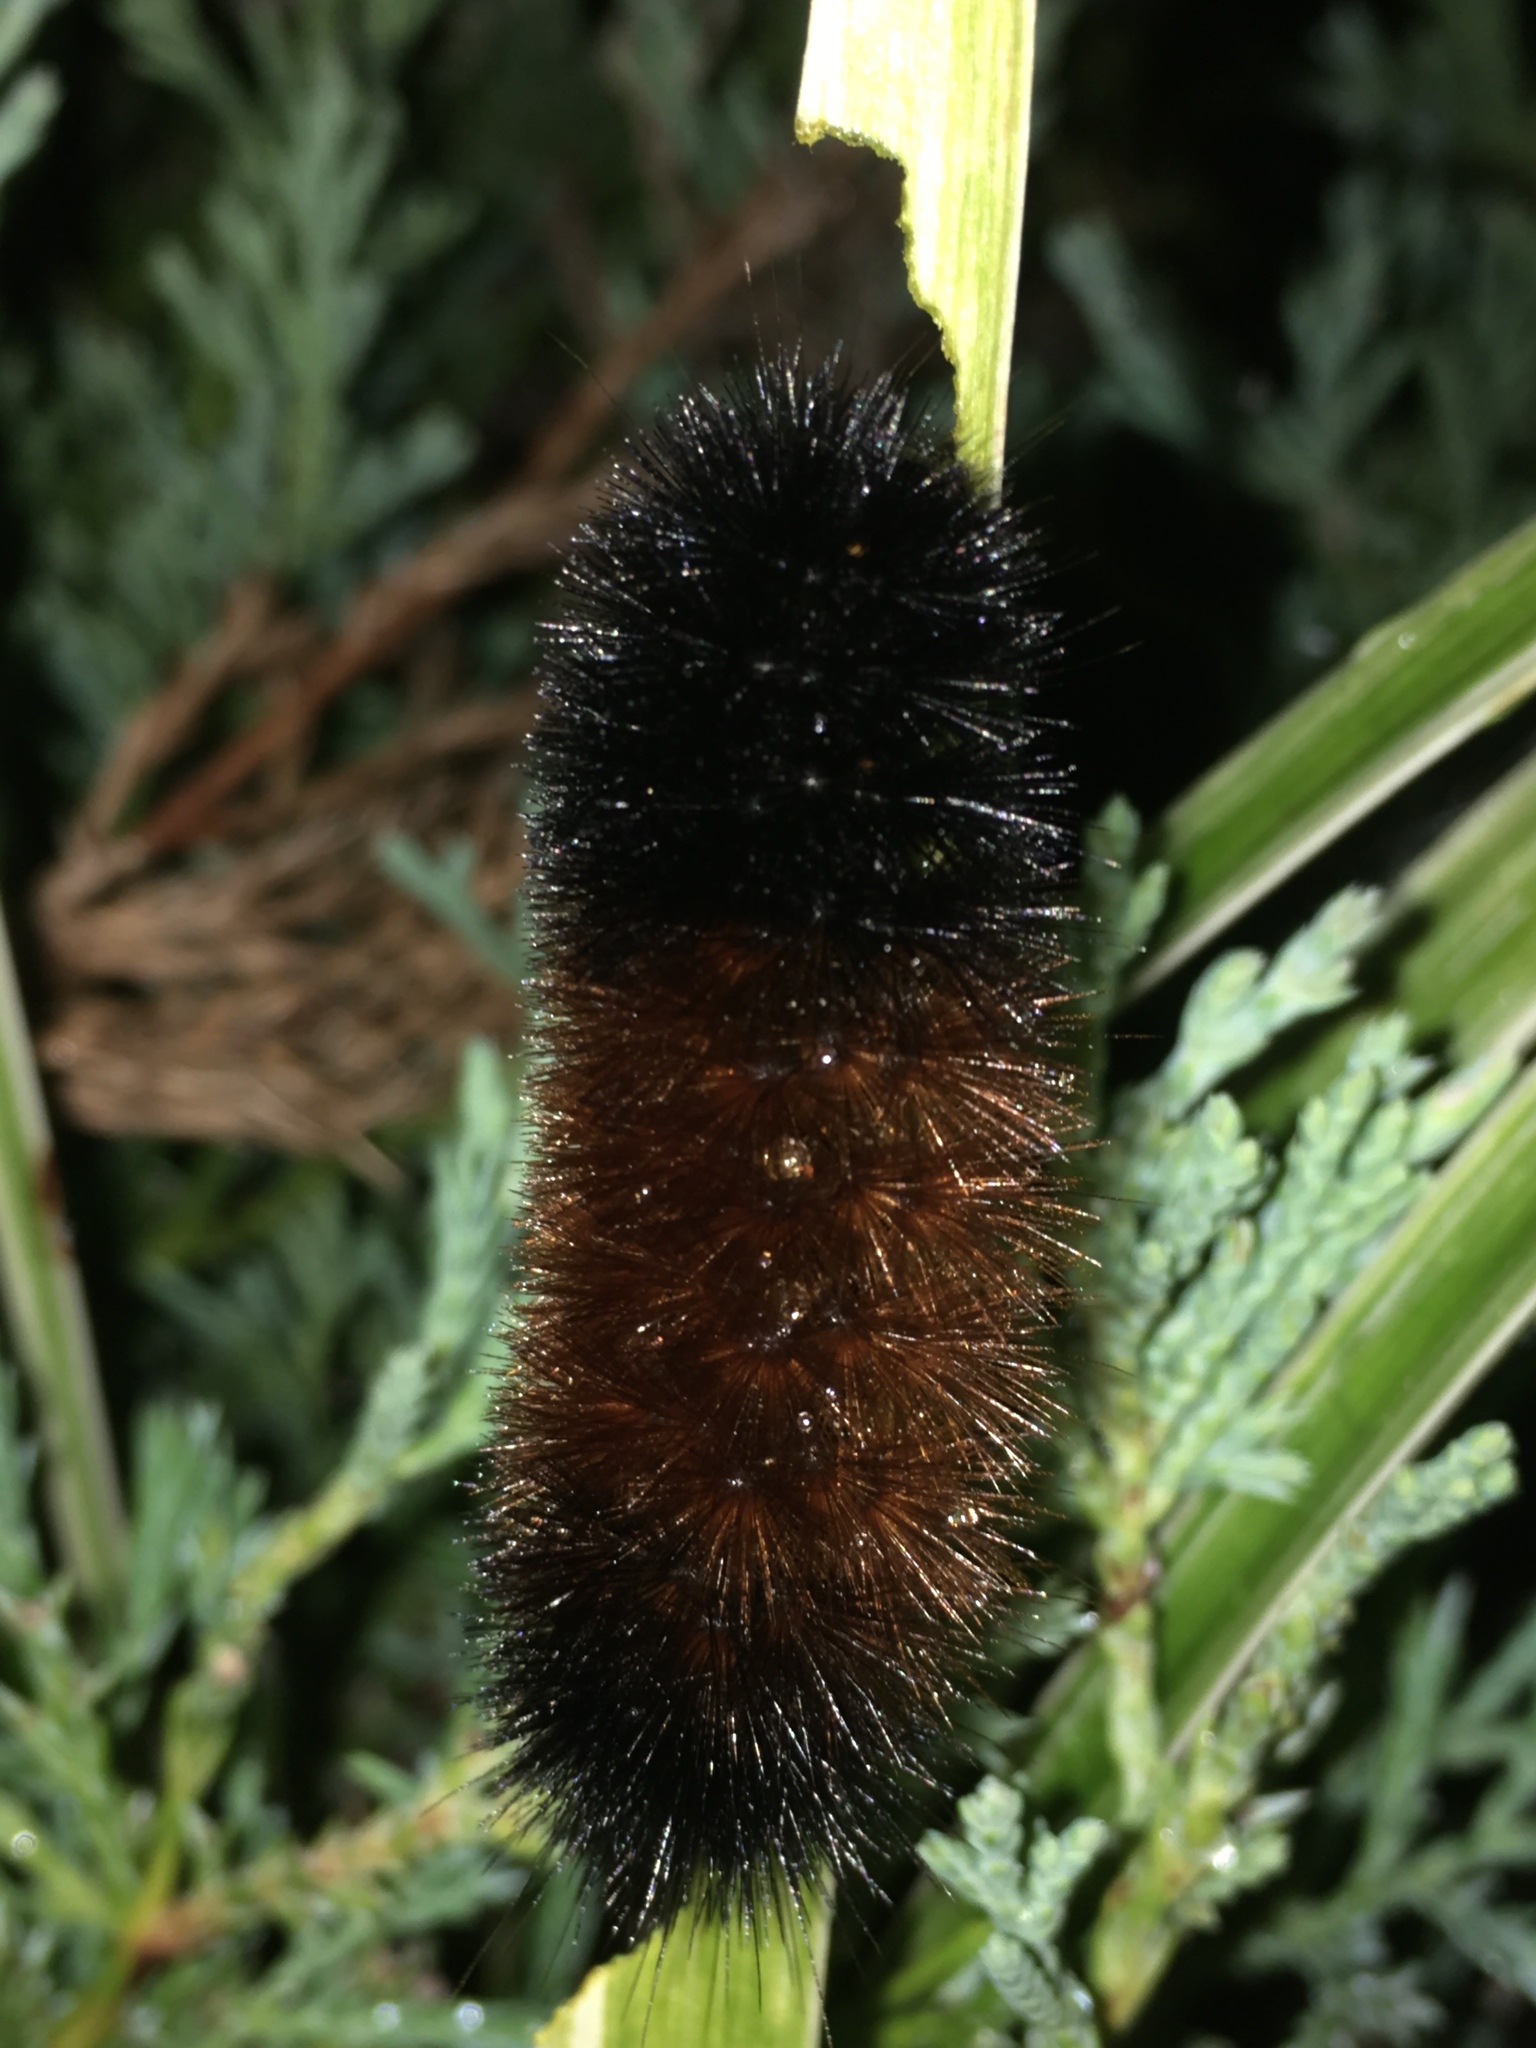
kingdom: Animalia
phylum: Arthropoda
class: Insecta
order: Lepidoptera
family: Erebidae
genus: Pyrrharctia
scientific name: Pyrrharctia isabella
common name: Isabella tiger moth
